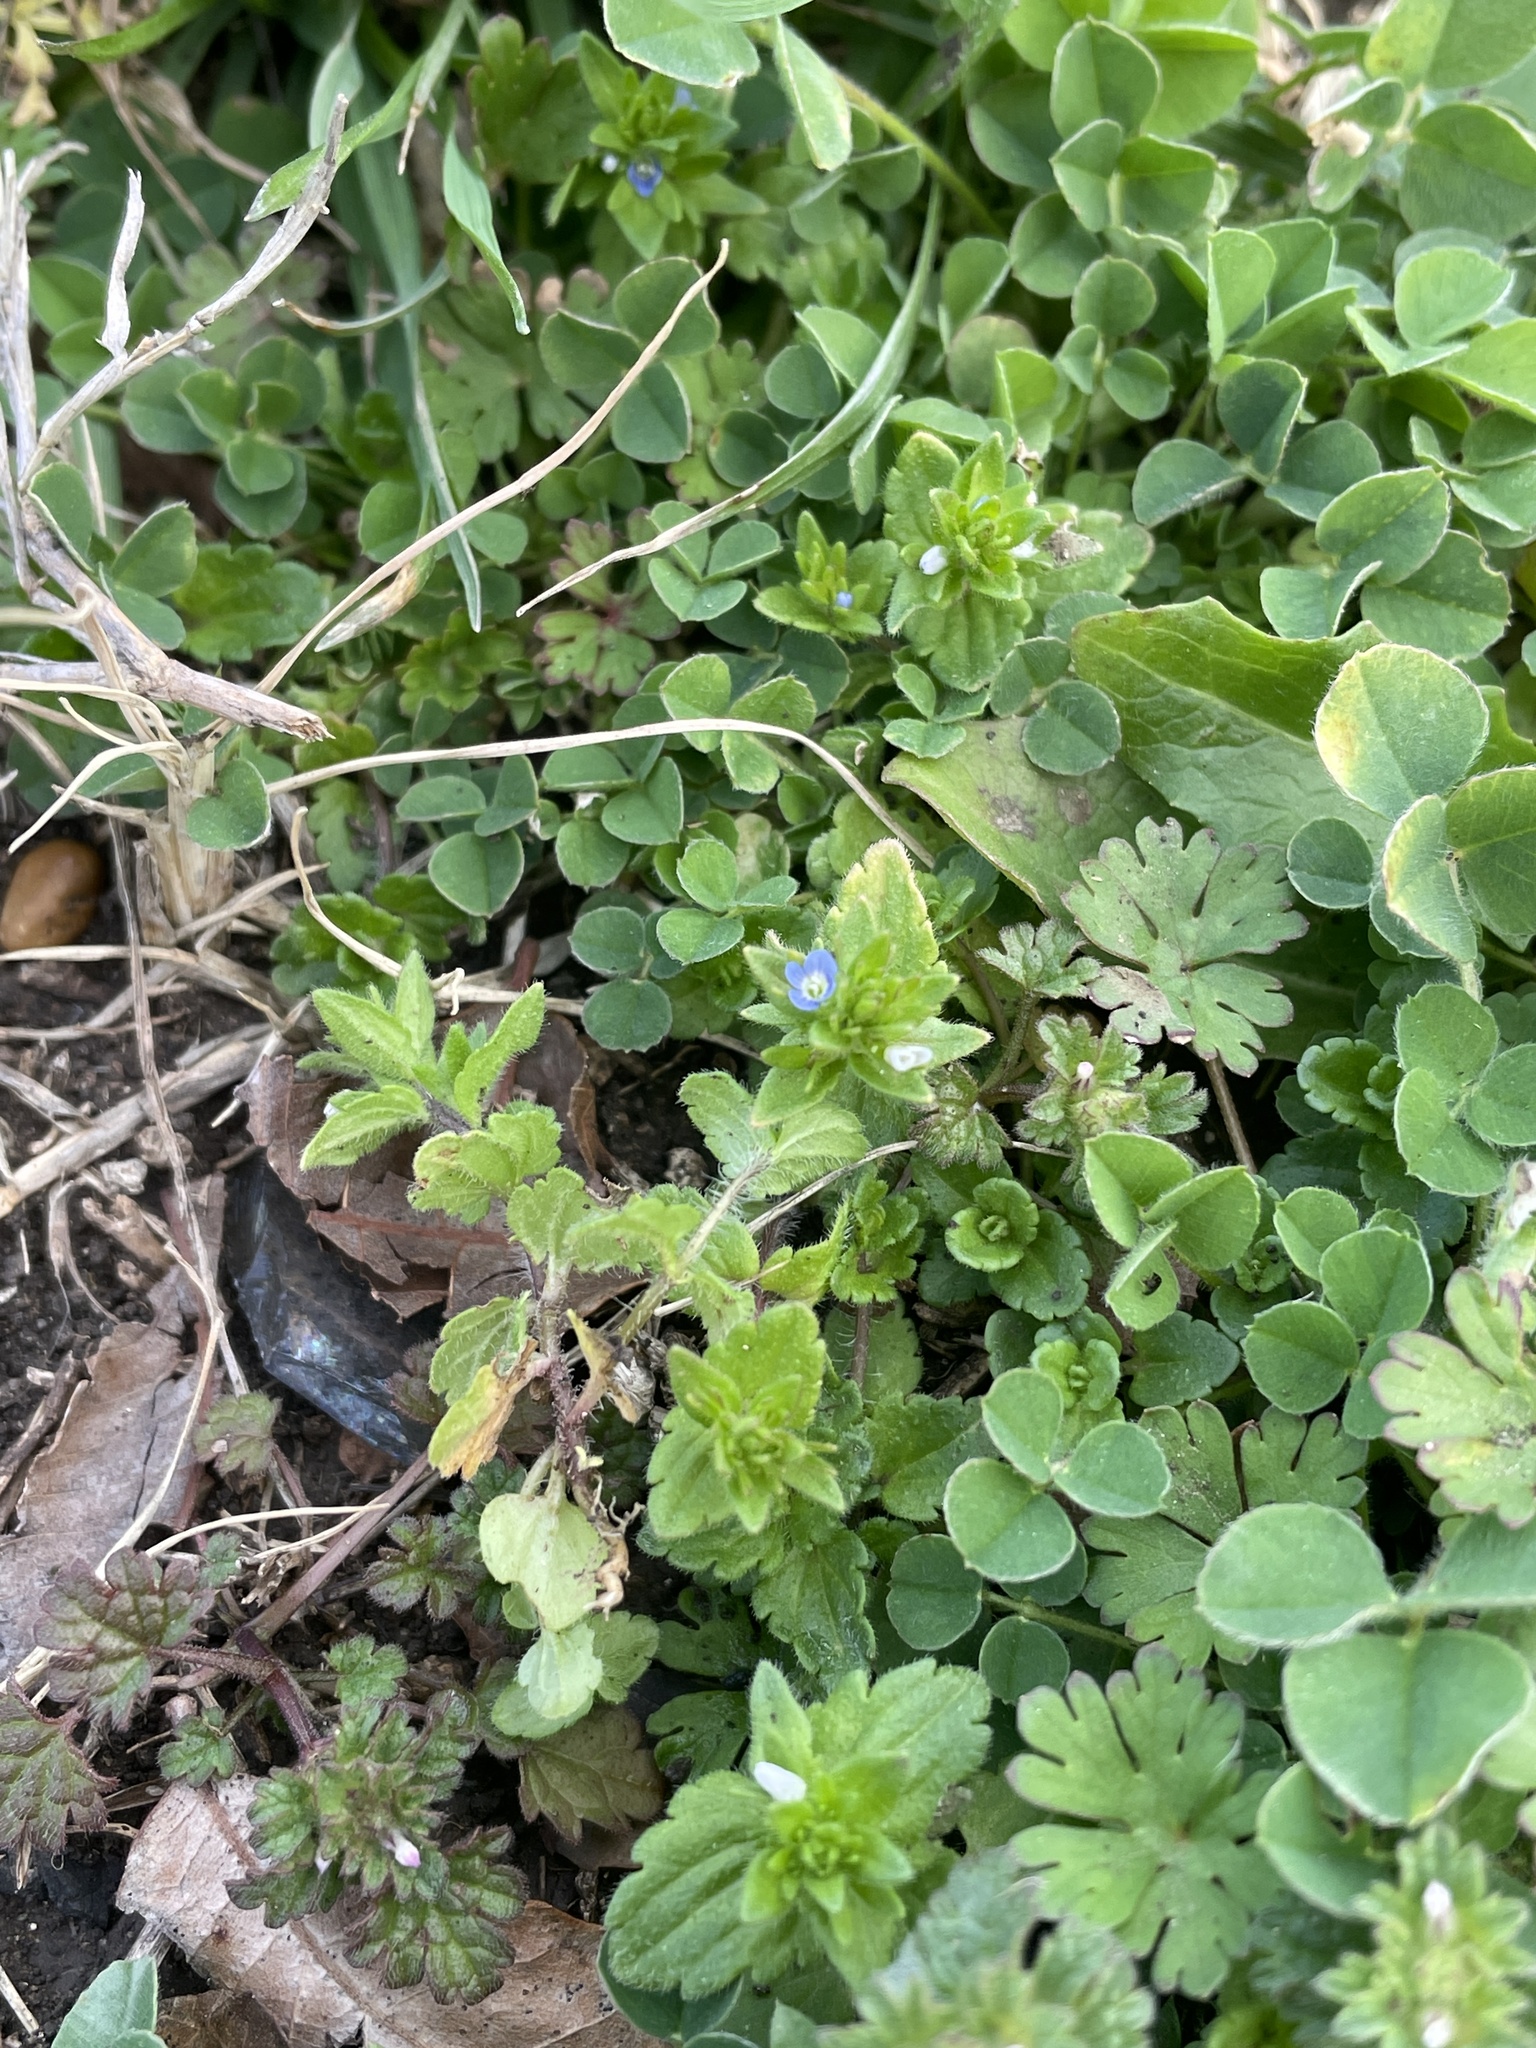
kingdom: Plantae
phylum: Tracheophyta
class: Magnoliopsida
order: Lamiales
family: Plantaginaceae
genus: Veronica
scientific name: Veronica arvensis
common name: Corn speedwell
